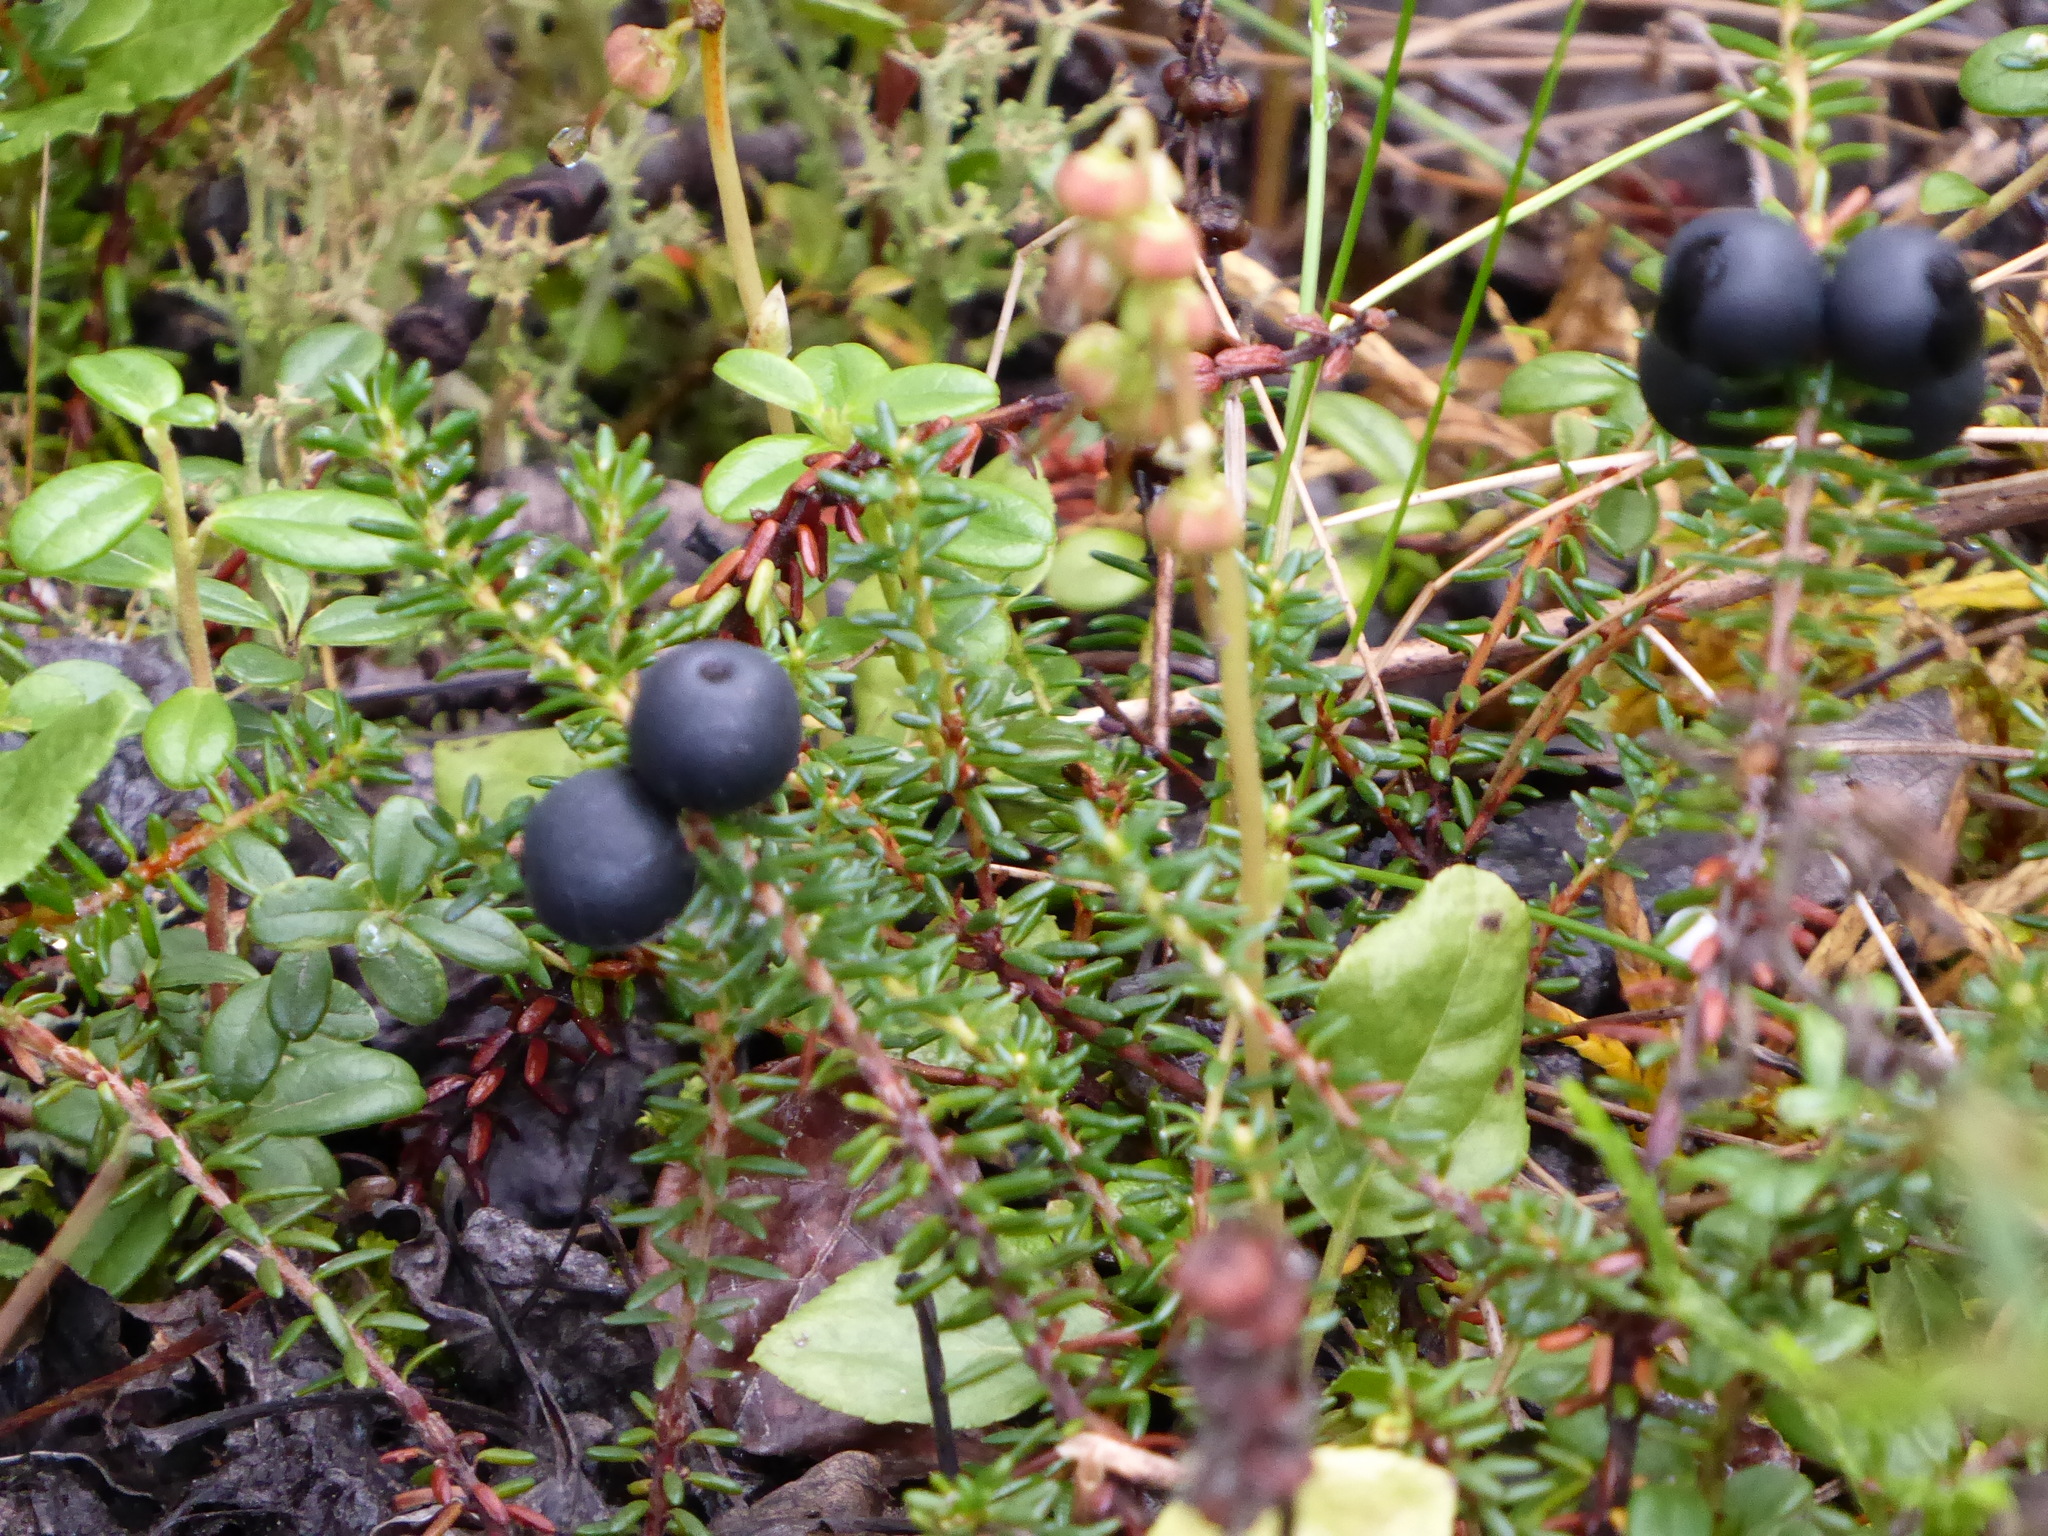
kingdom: Plantae
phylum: Tracheophyta
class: Magnoliopsida
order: Ericales
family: Ericaceae
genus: Empetrum
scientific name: Empetrum nigrum
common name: Black crowberry
